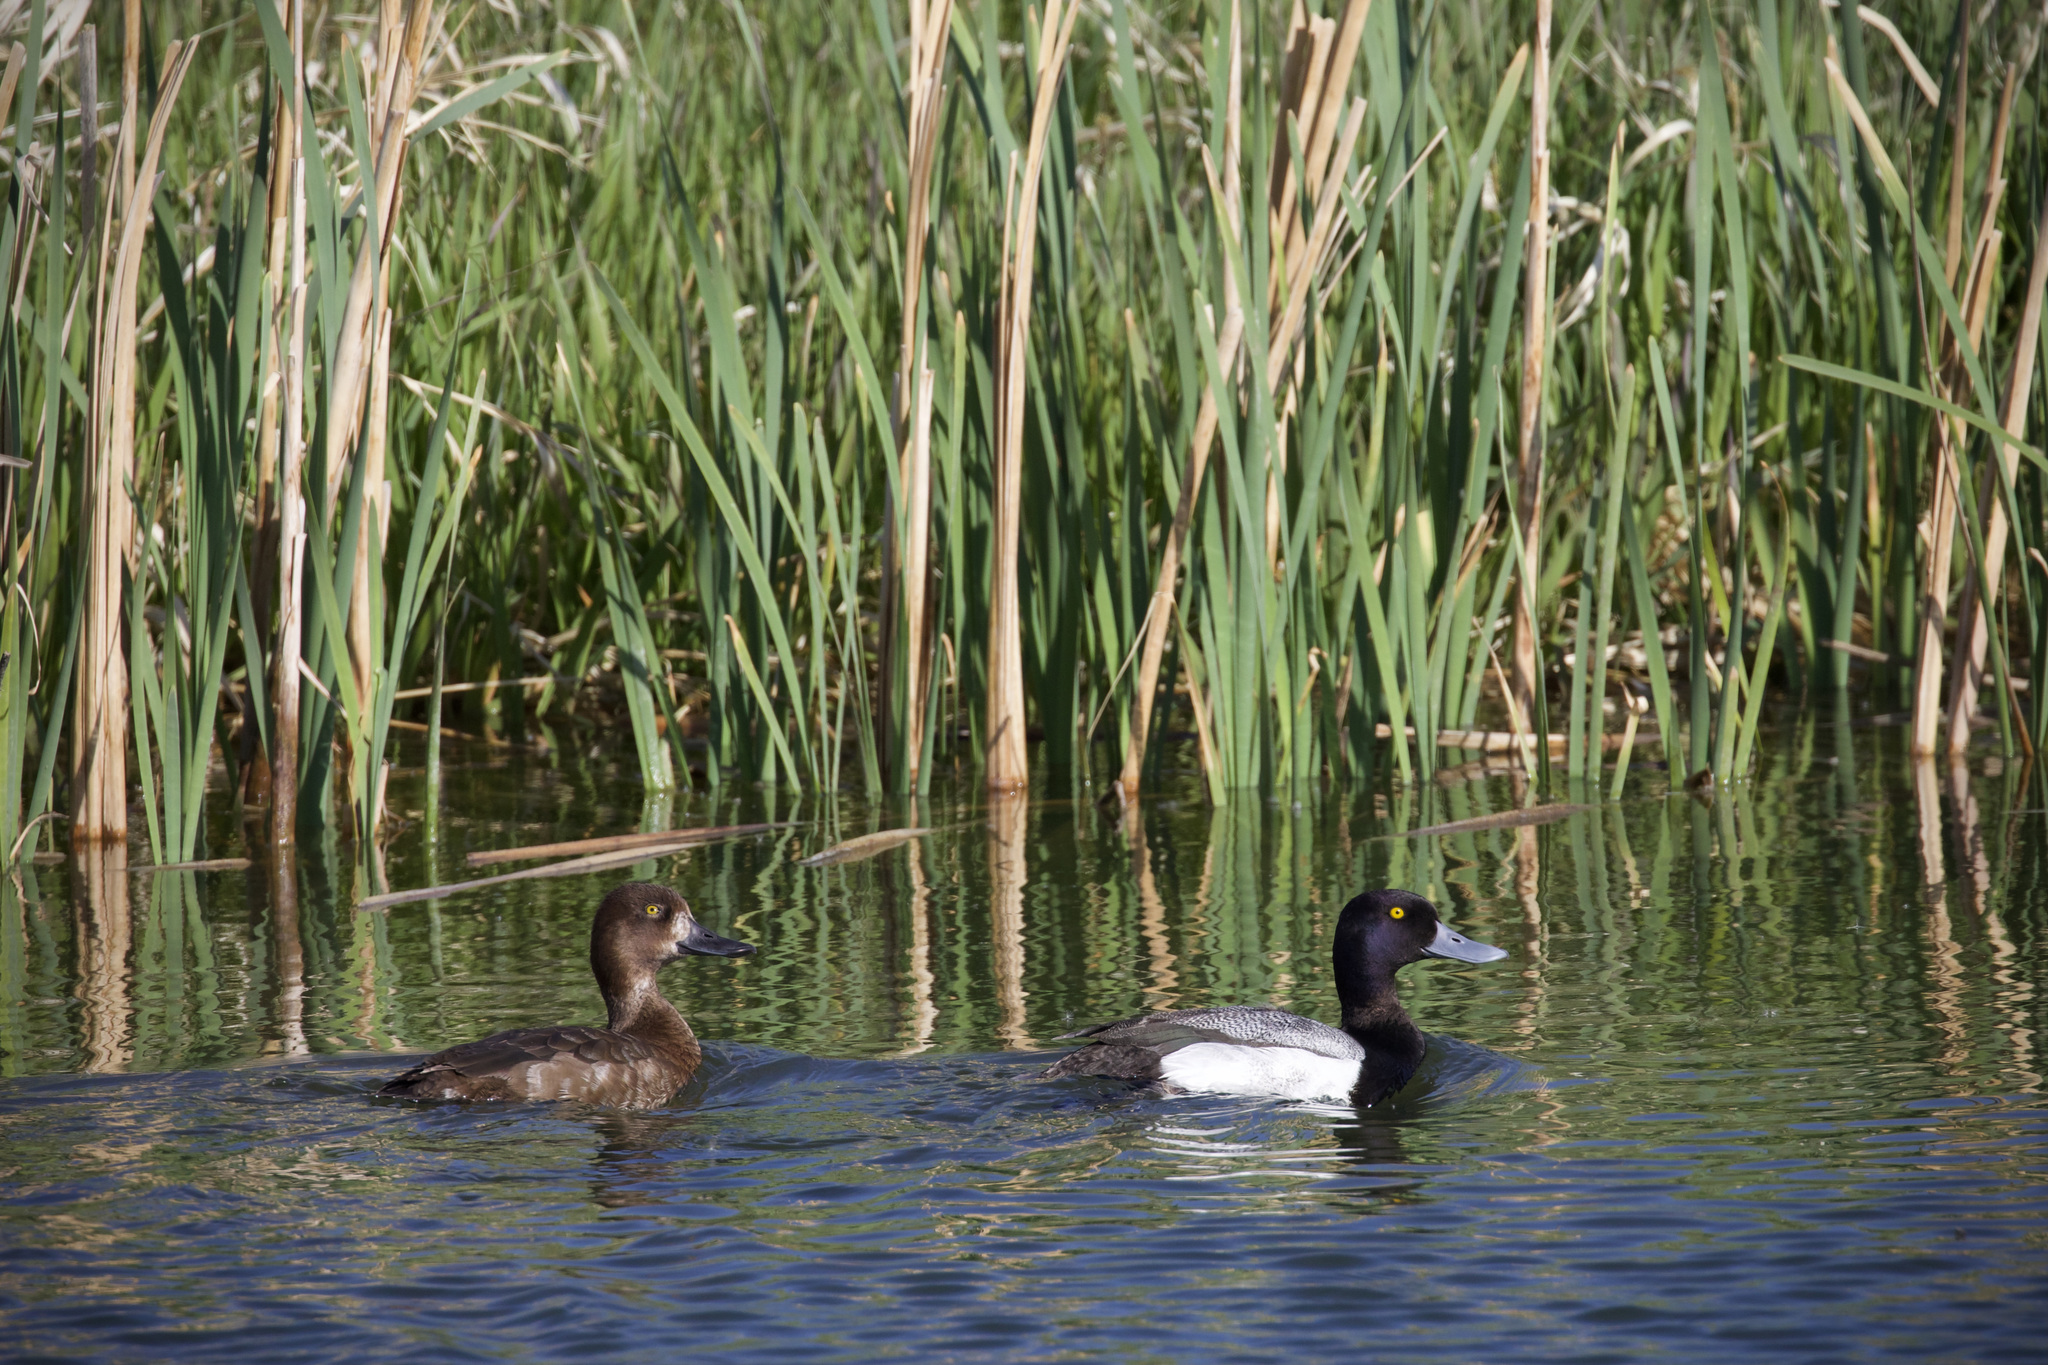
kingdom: Animalia
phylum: Chordata
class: Aves
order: Anseriformes
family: Anatidae
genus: Aythya
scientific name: Aythya affinis
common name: Lesser scaup
